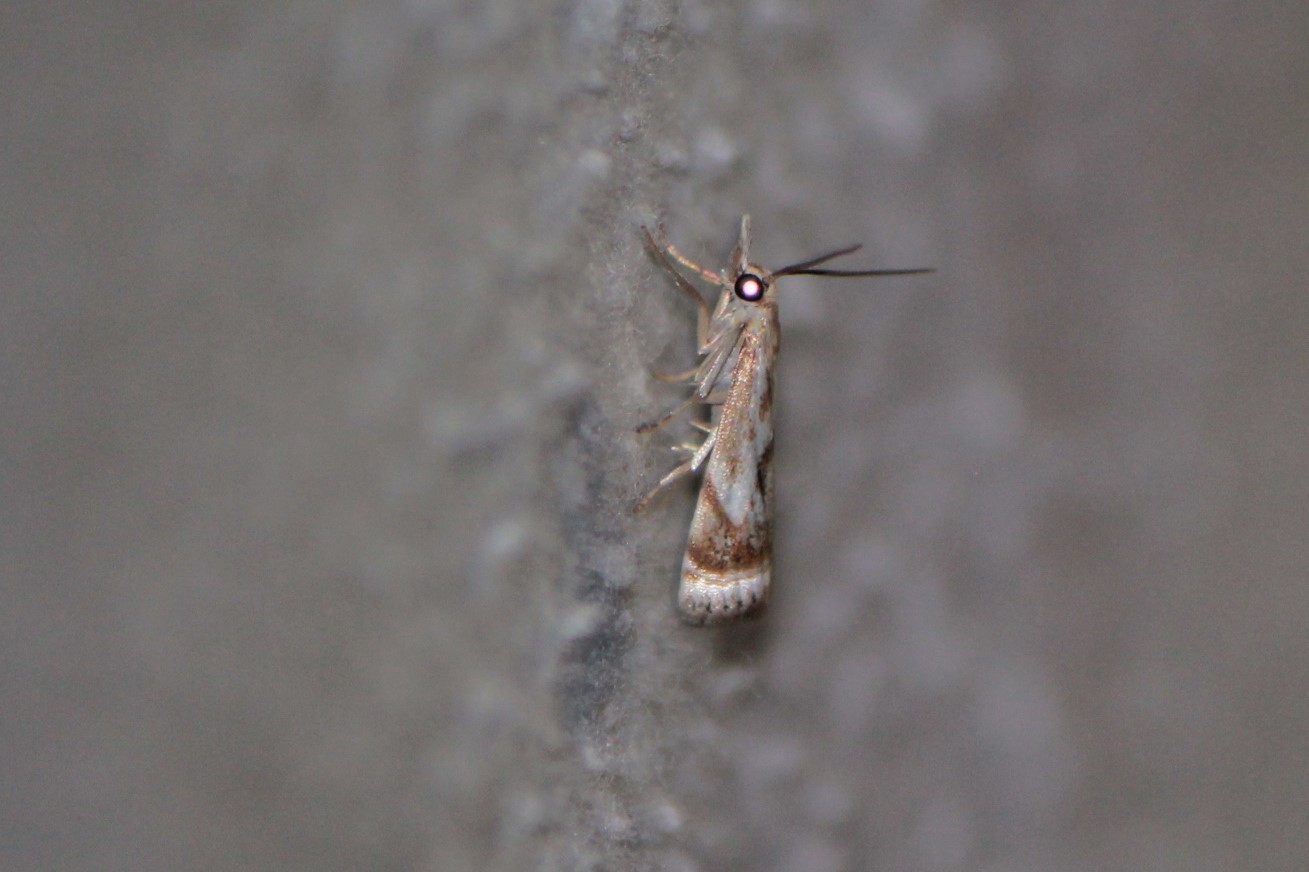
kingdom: Animalia
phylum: Arthropoda
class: Insecta
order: Lepidoptera
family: Crambidae
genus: Microcrambus
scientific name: Microcrambus elegans
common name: Elegant grass-veneer
